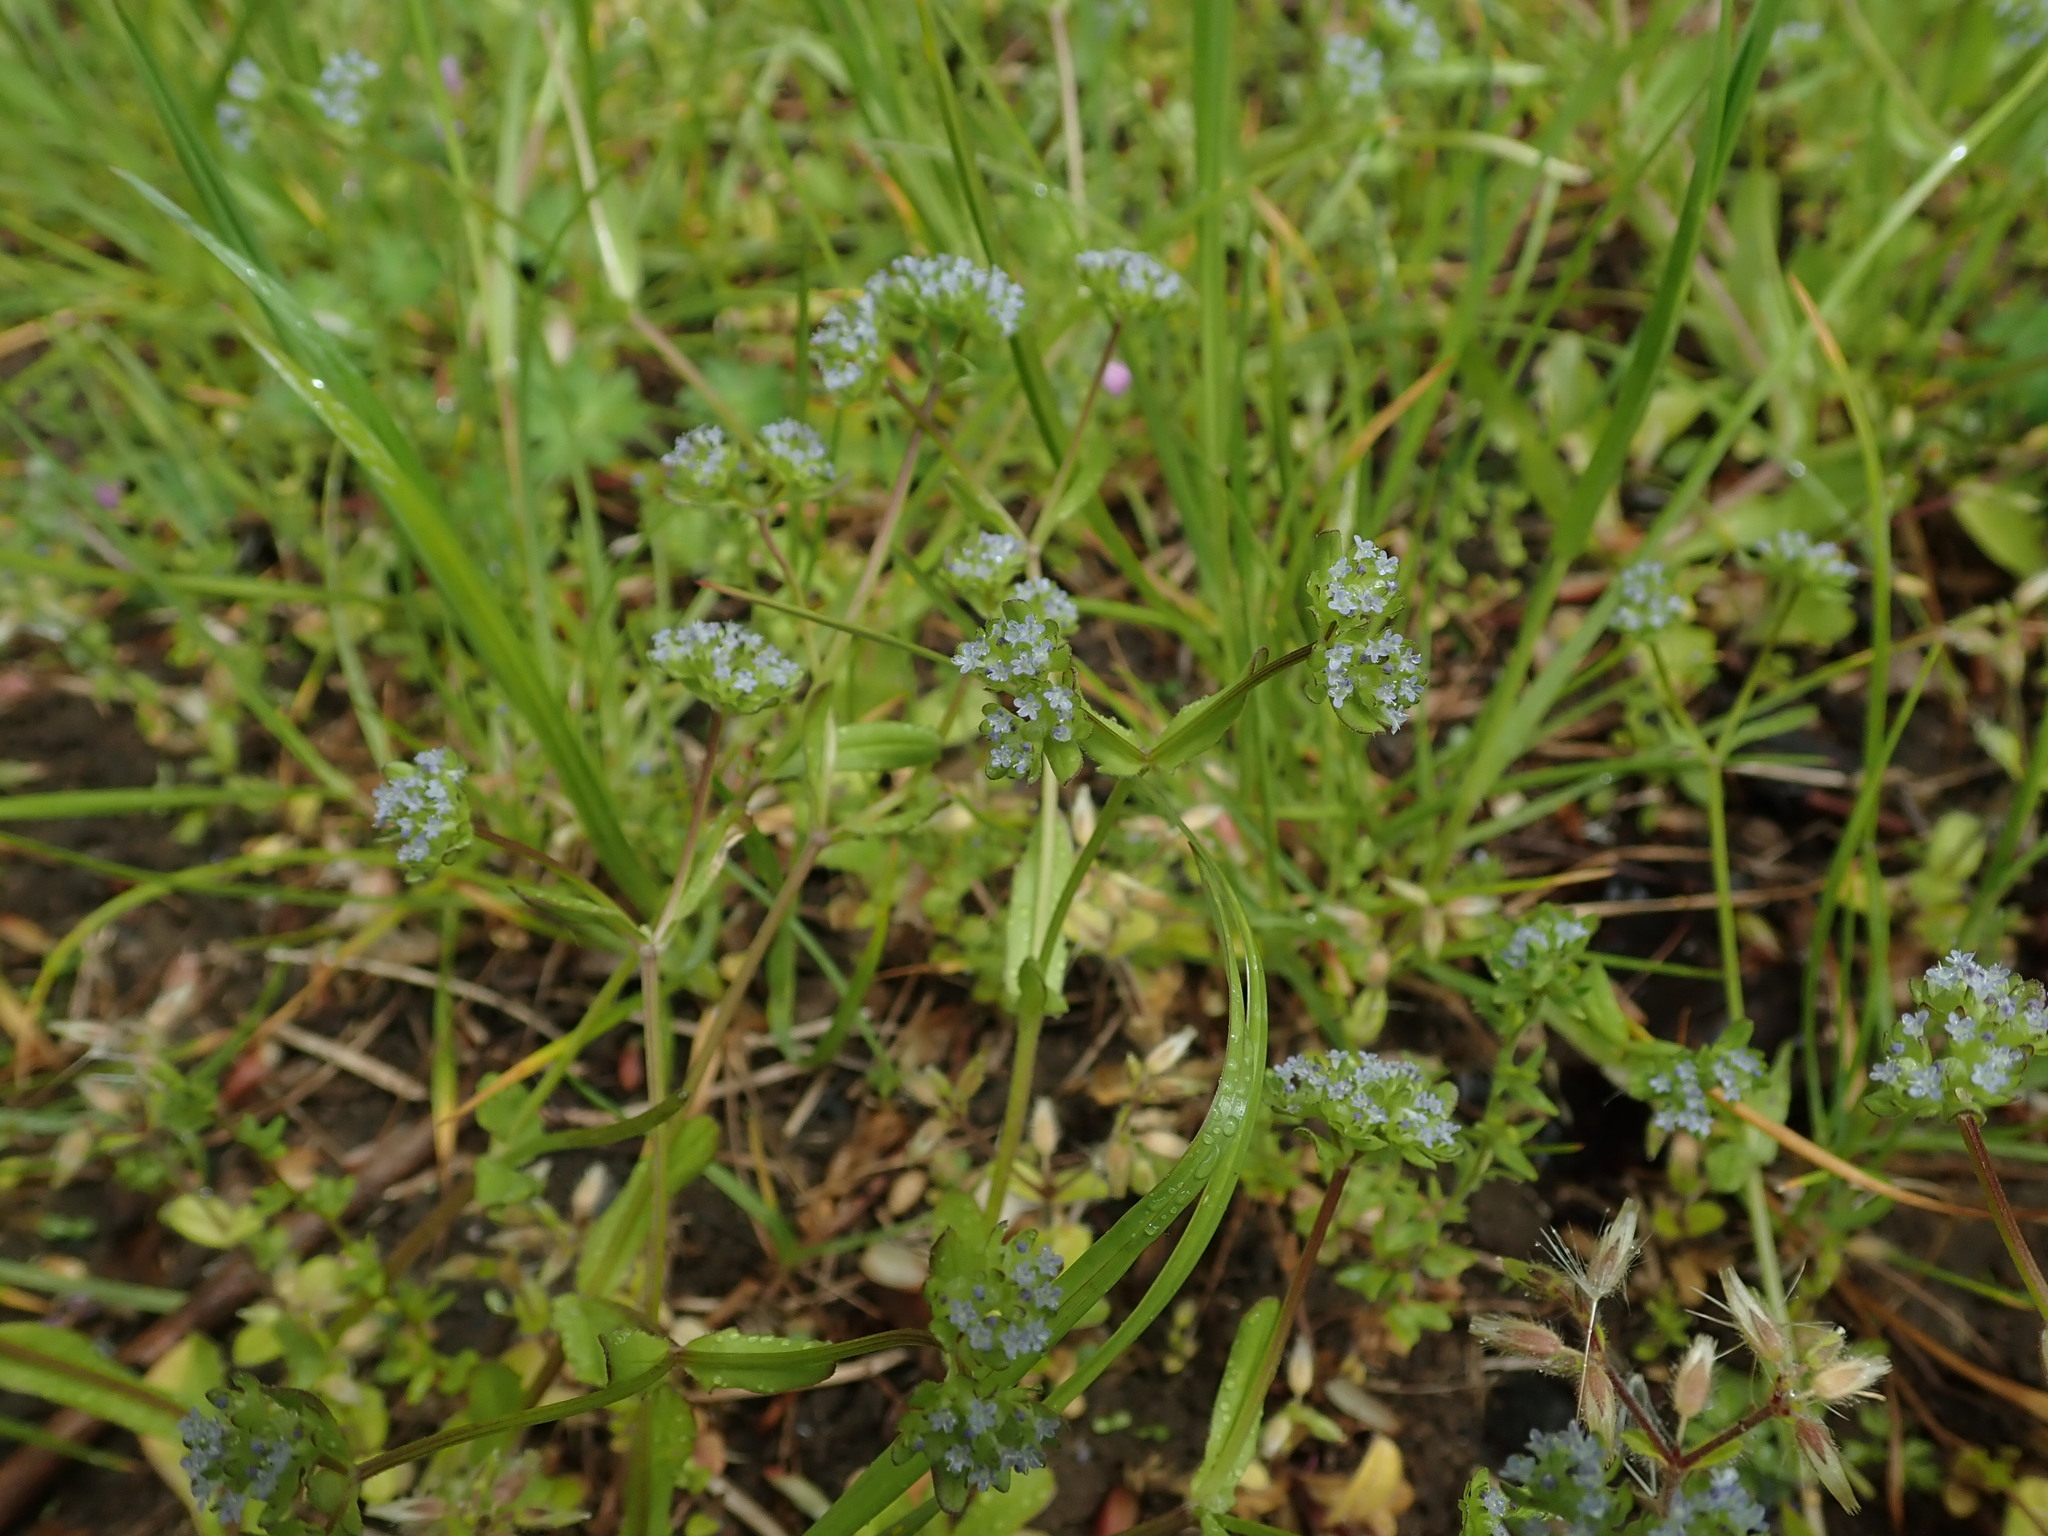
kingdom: Plantae
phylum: Tracheophyta
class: Magnoliopsida
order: Dipsacales
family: Caprifoliaceae
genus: Valerianella
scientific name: Valerianella locusta
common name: Common cornsalad
